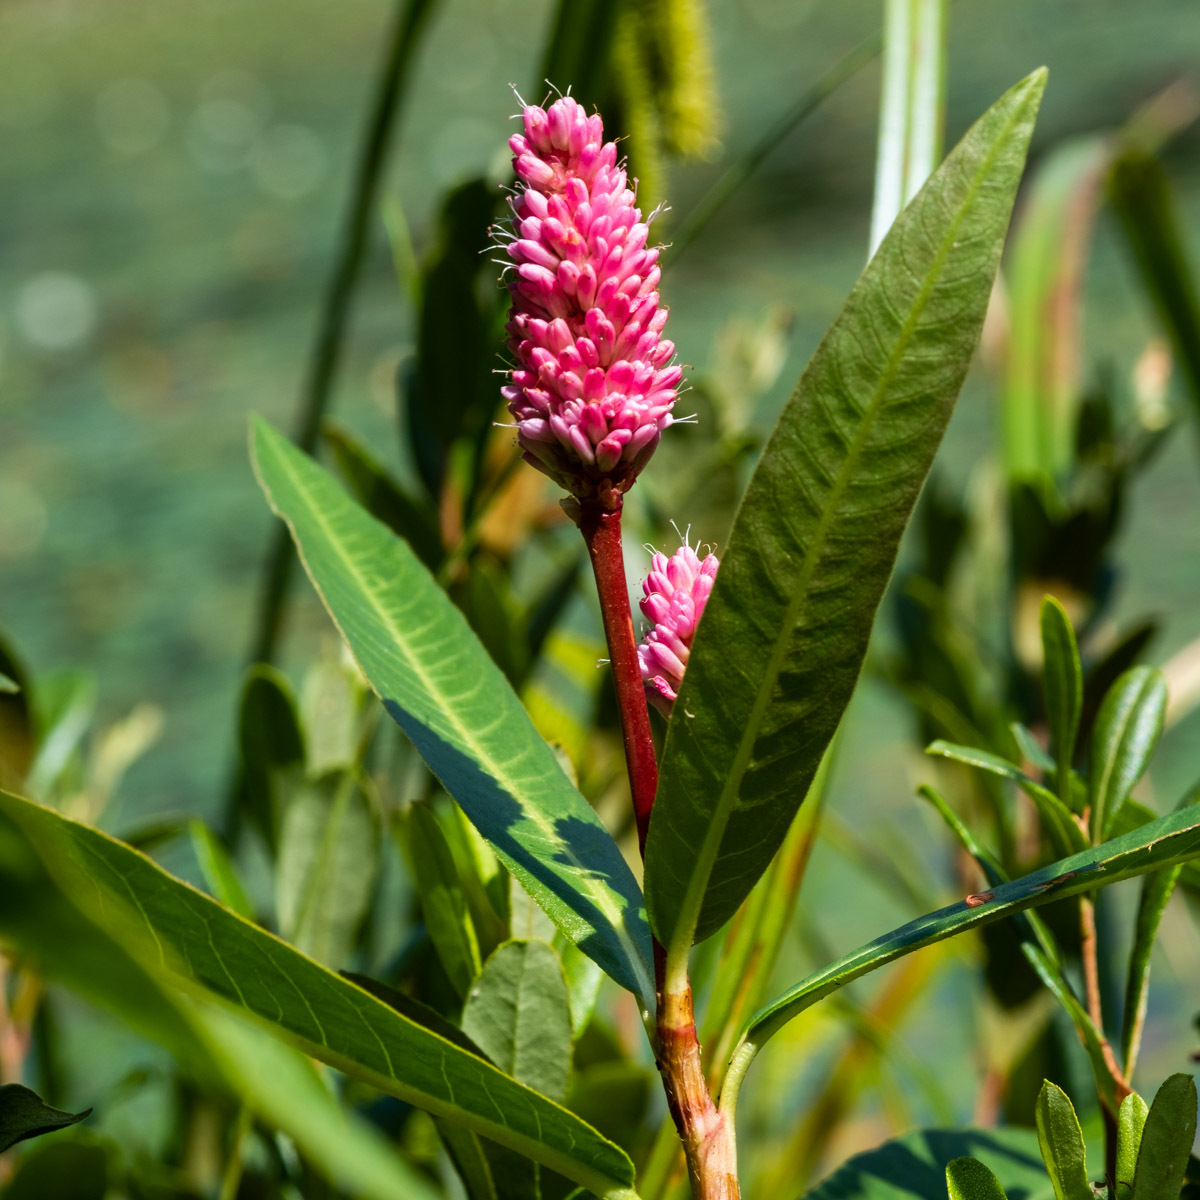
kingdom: Plantae
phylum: Tracheophyta
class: Magnoliopsida
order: Caryophyllales
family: Polygonaceae
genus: Persicaria
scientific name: Persicaria amphibia
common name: Amphibious bistort
